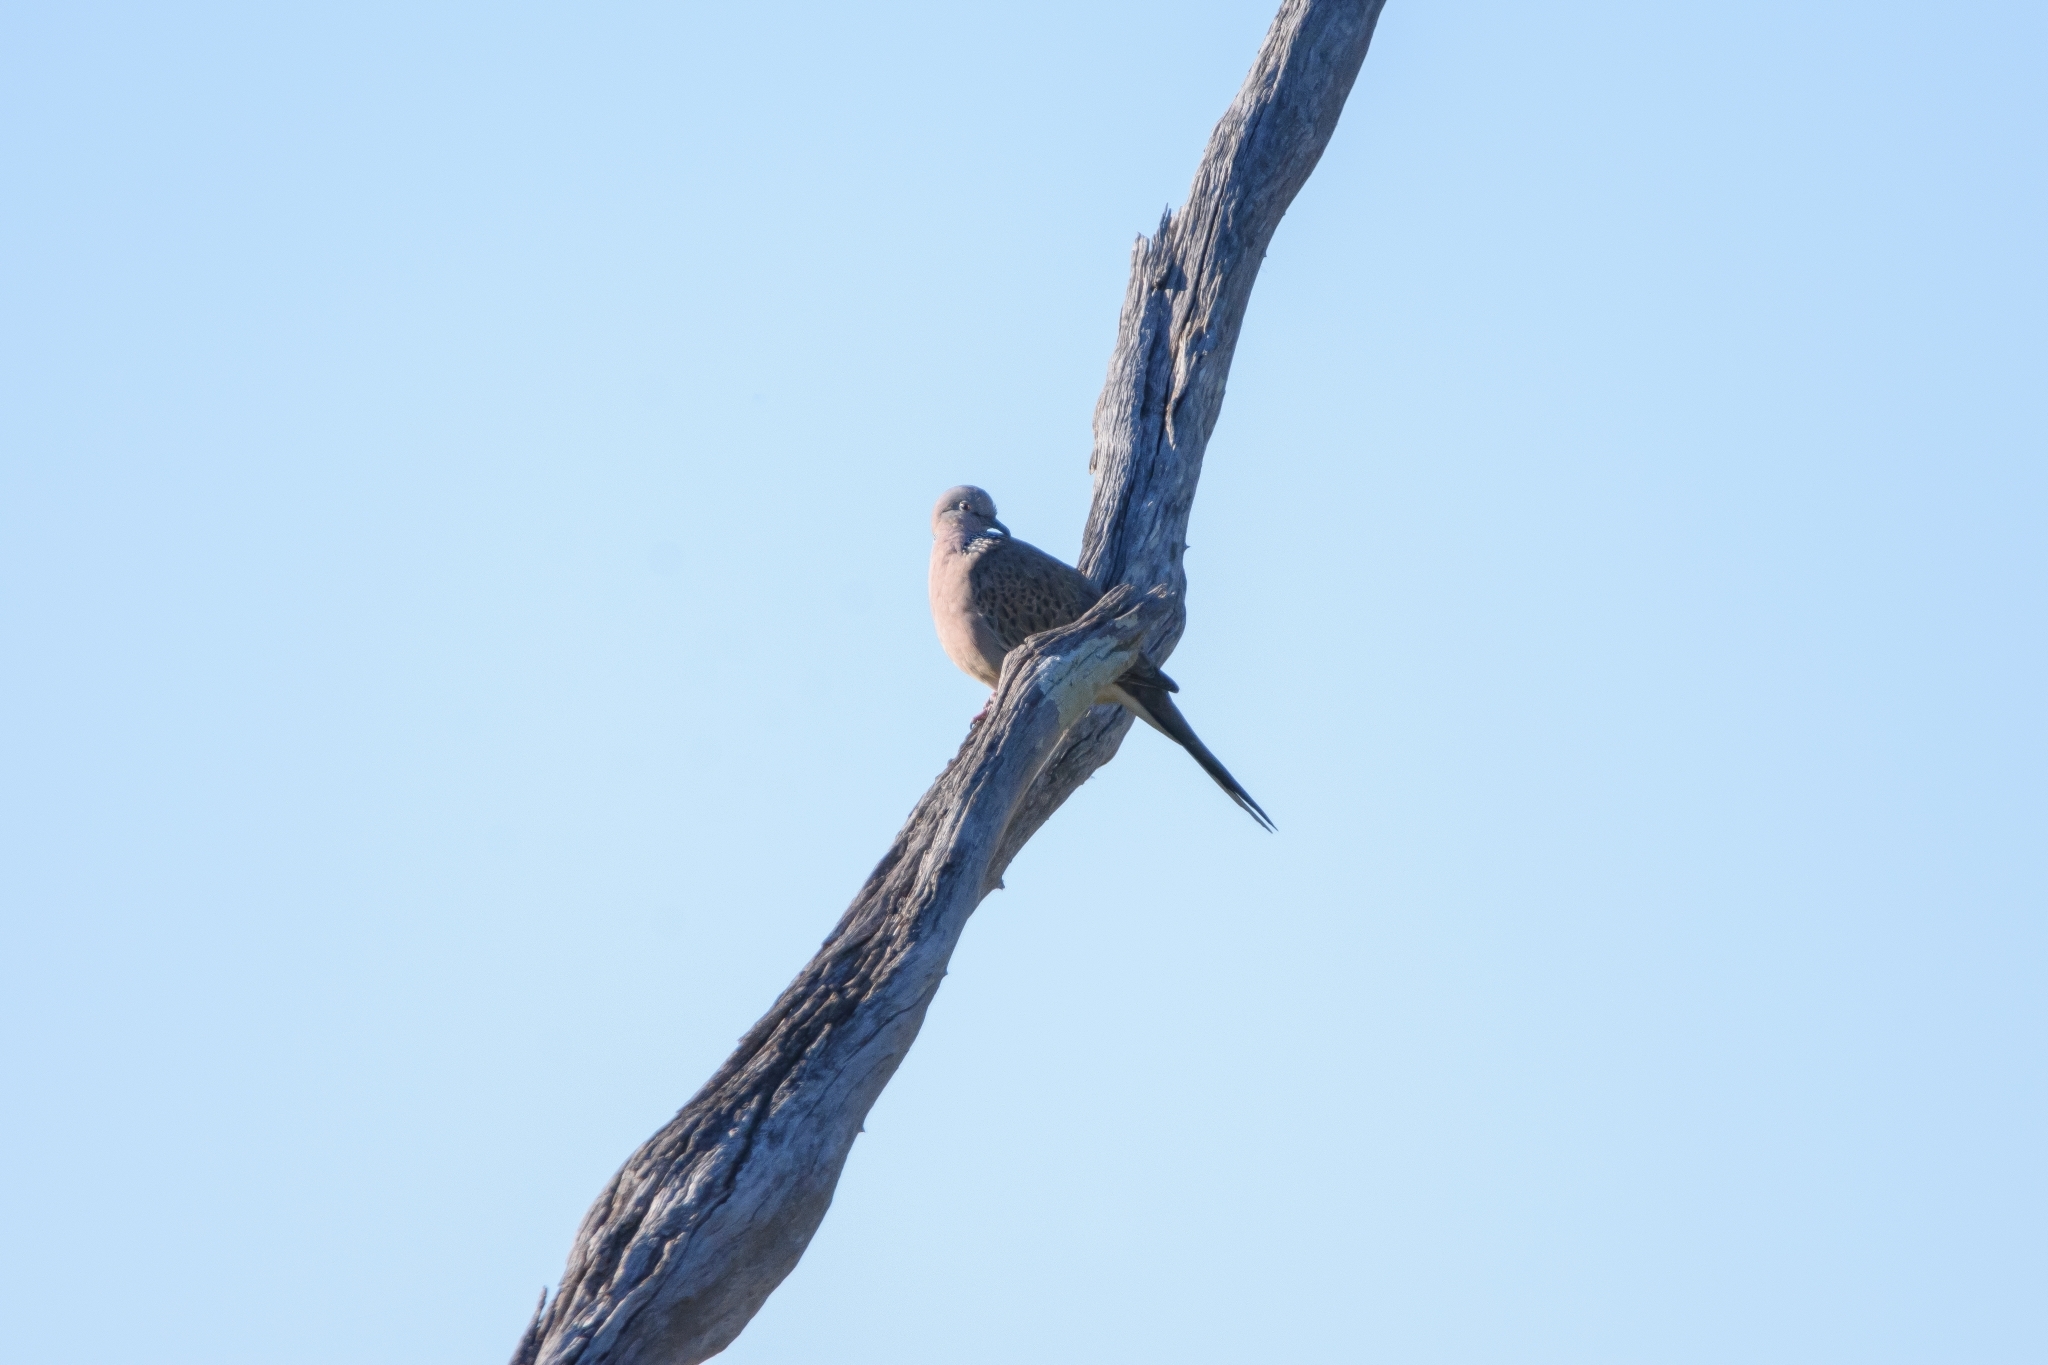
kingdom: Animalia
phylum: Chordata
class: Aves
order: Columbiformes
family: Columbidae
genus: Spilopelia
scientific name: Spilopelia chinensis
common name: Spotted dove
